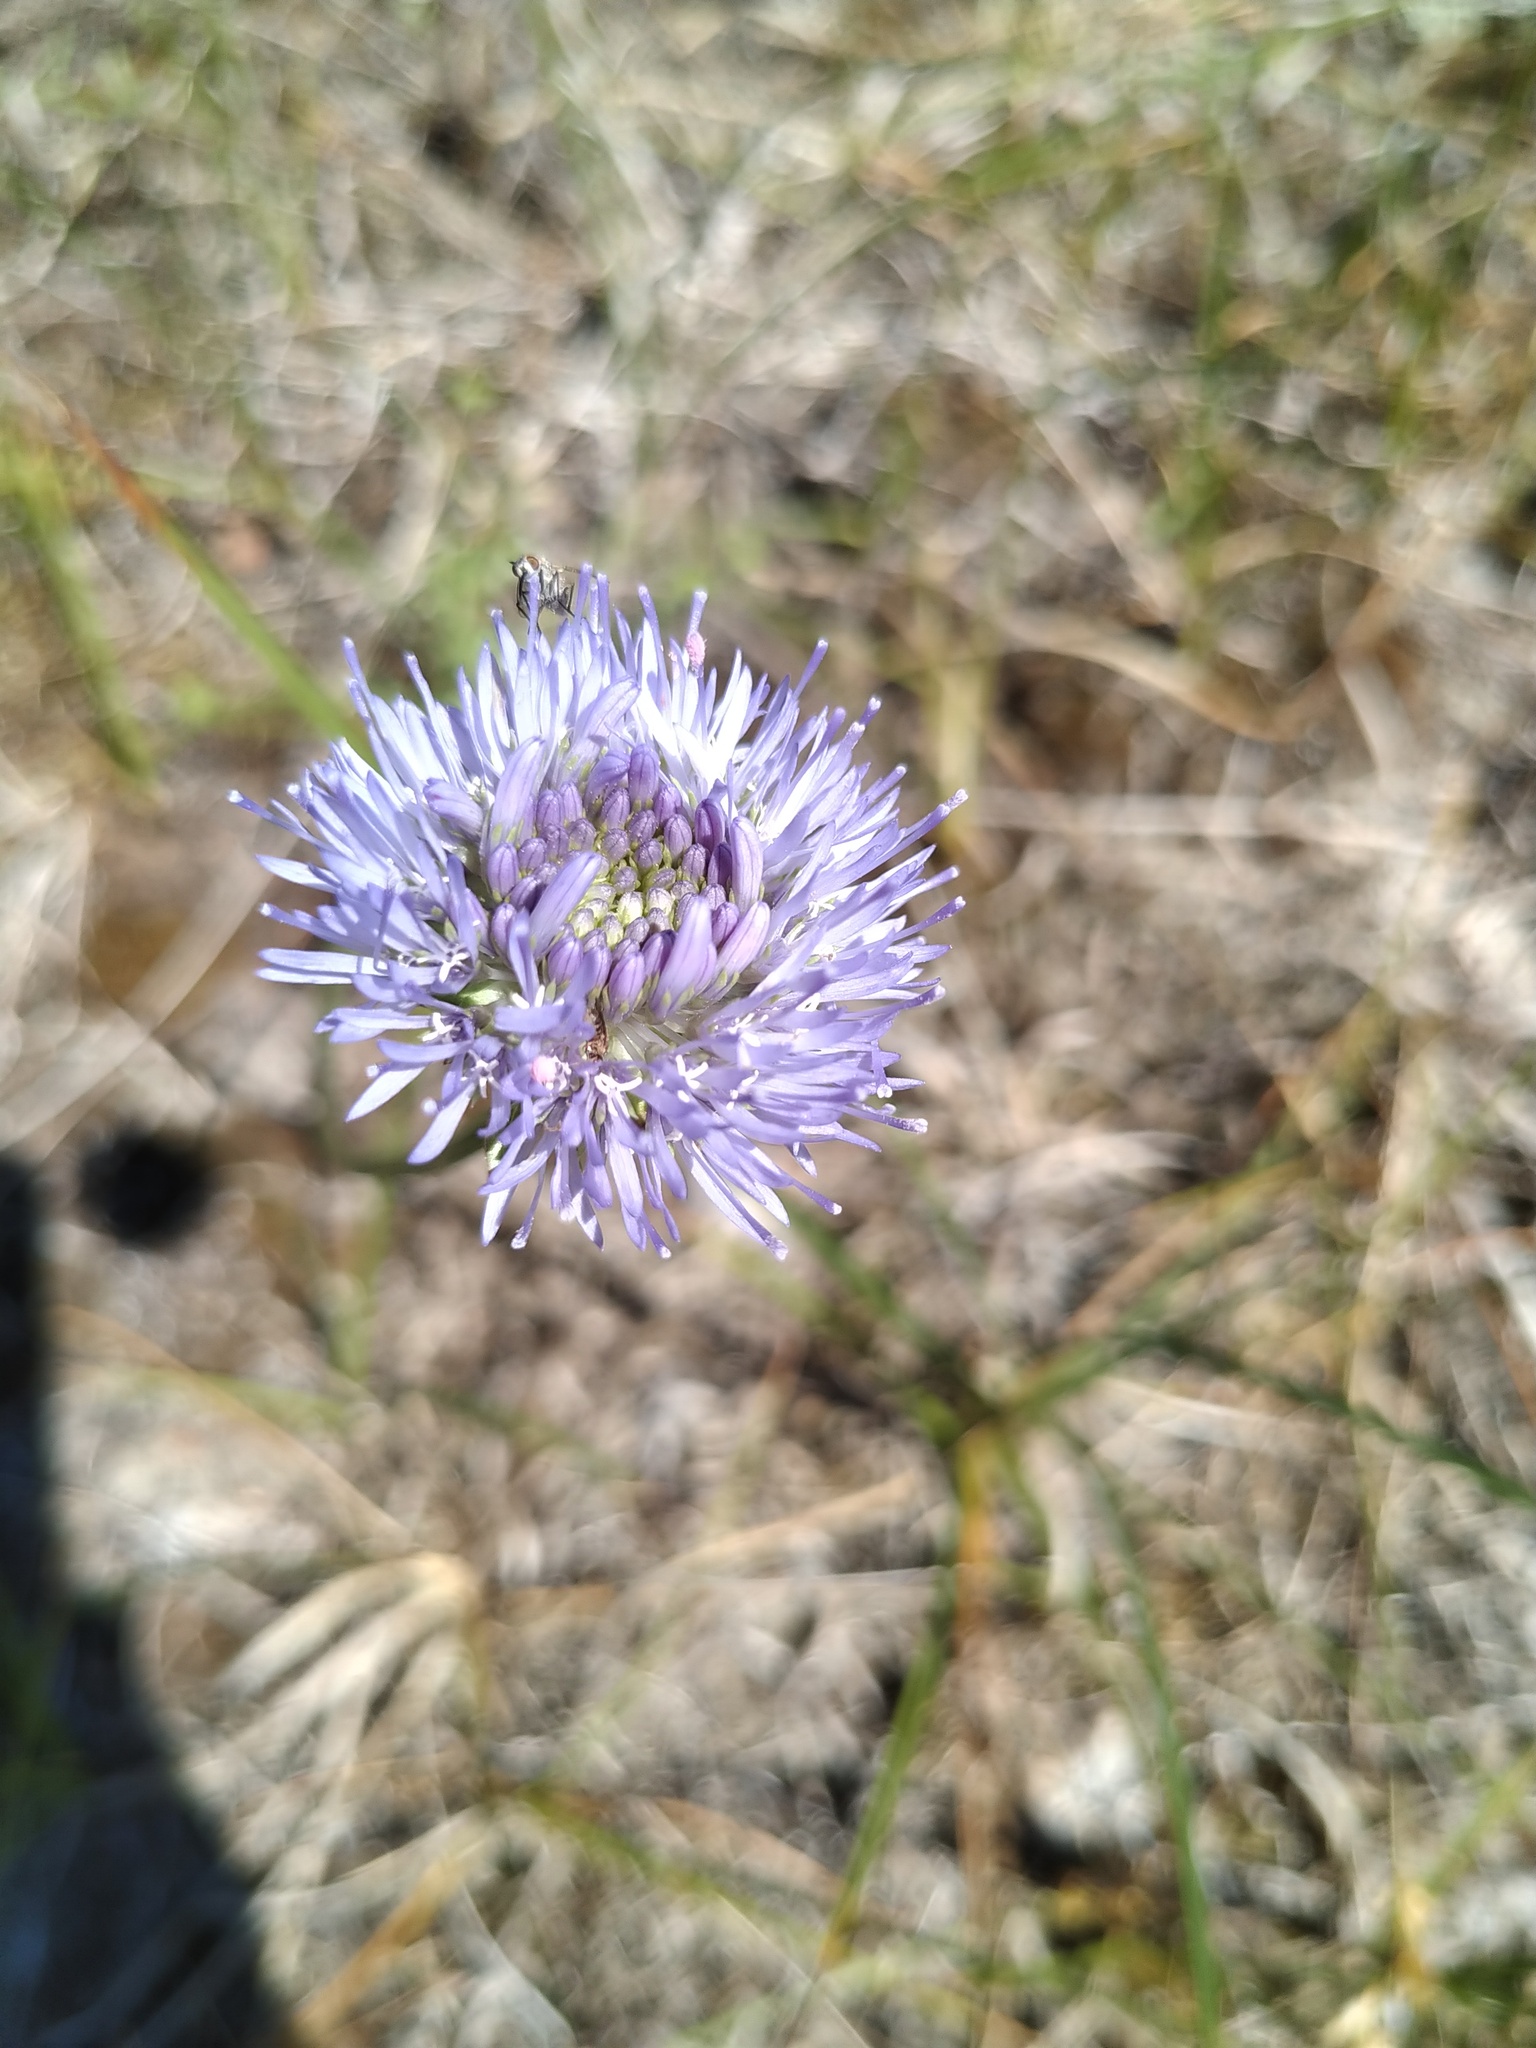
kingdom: Plantae
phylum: Tracheophyta
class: Magnoliopsida
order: Asterales
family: Campanulaceae
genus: Jasione
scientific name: Jasione montana
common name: Sheep's-bit
